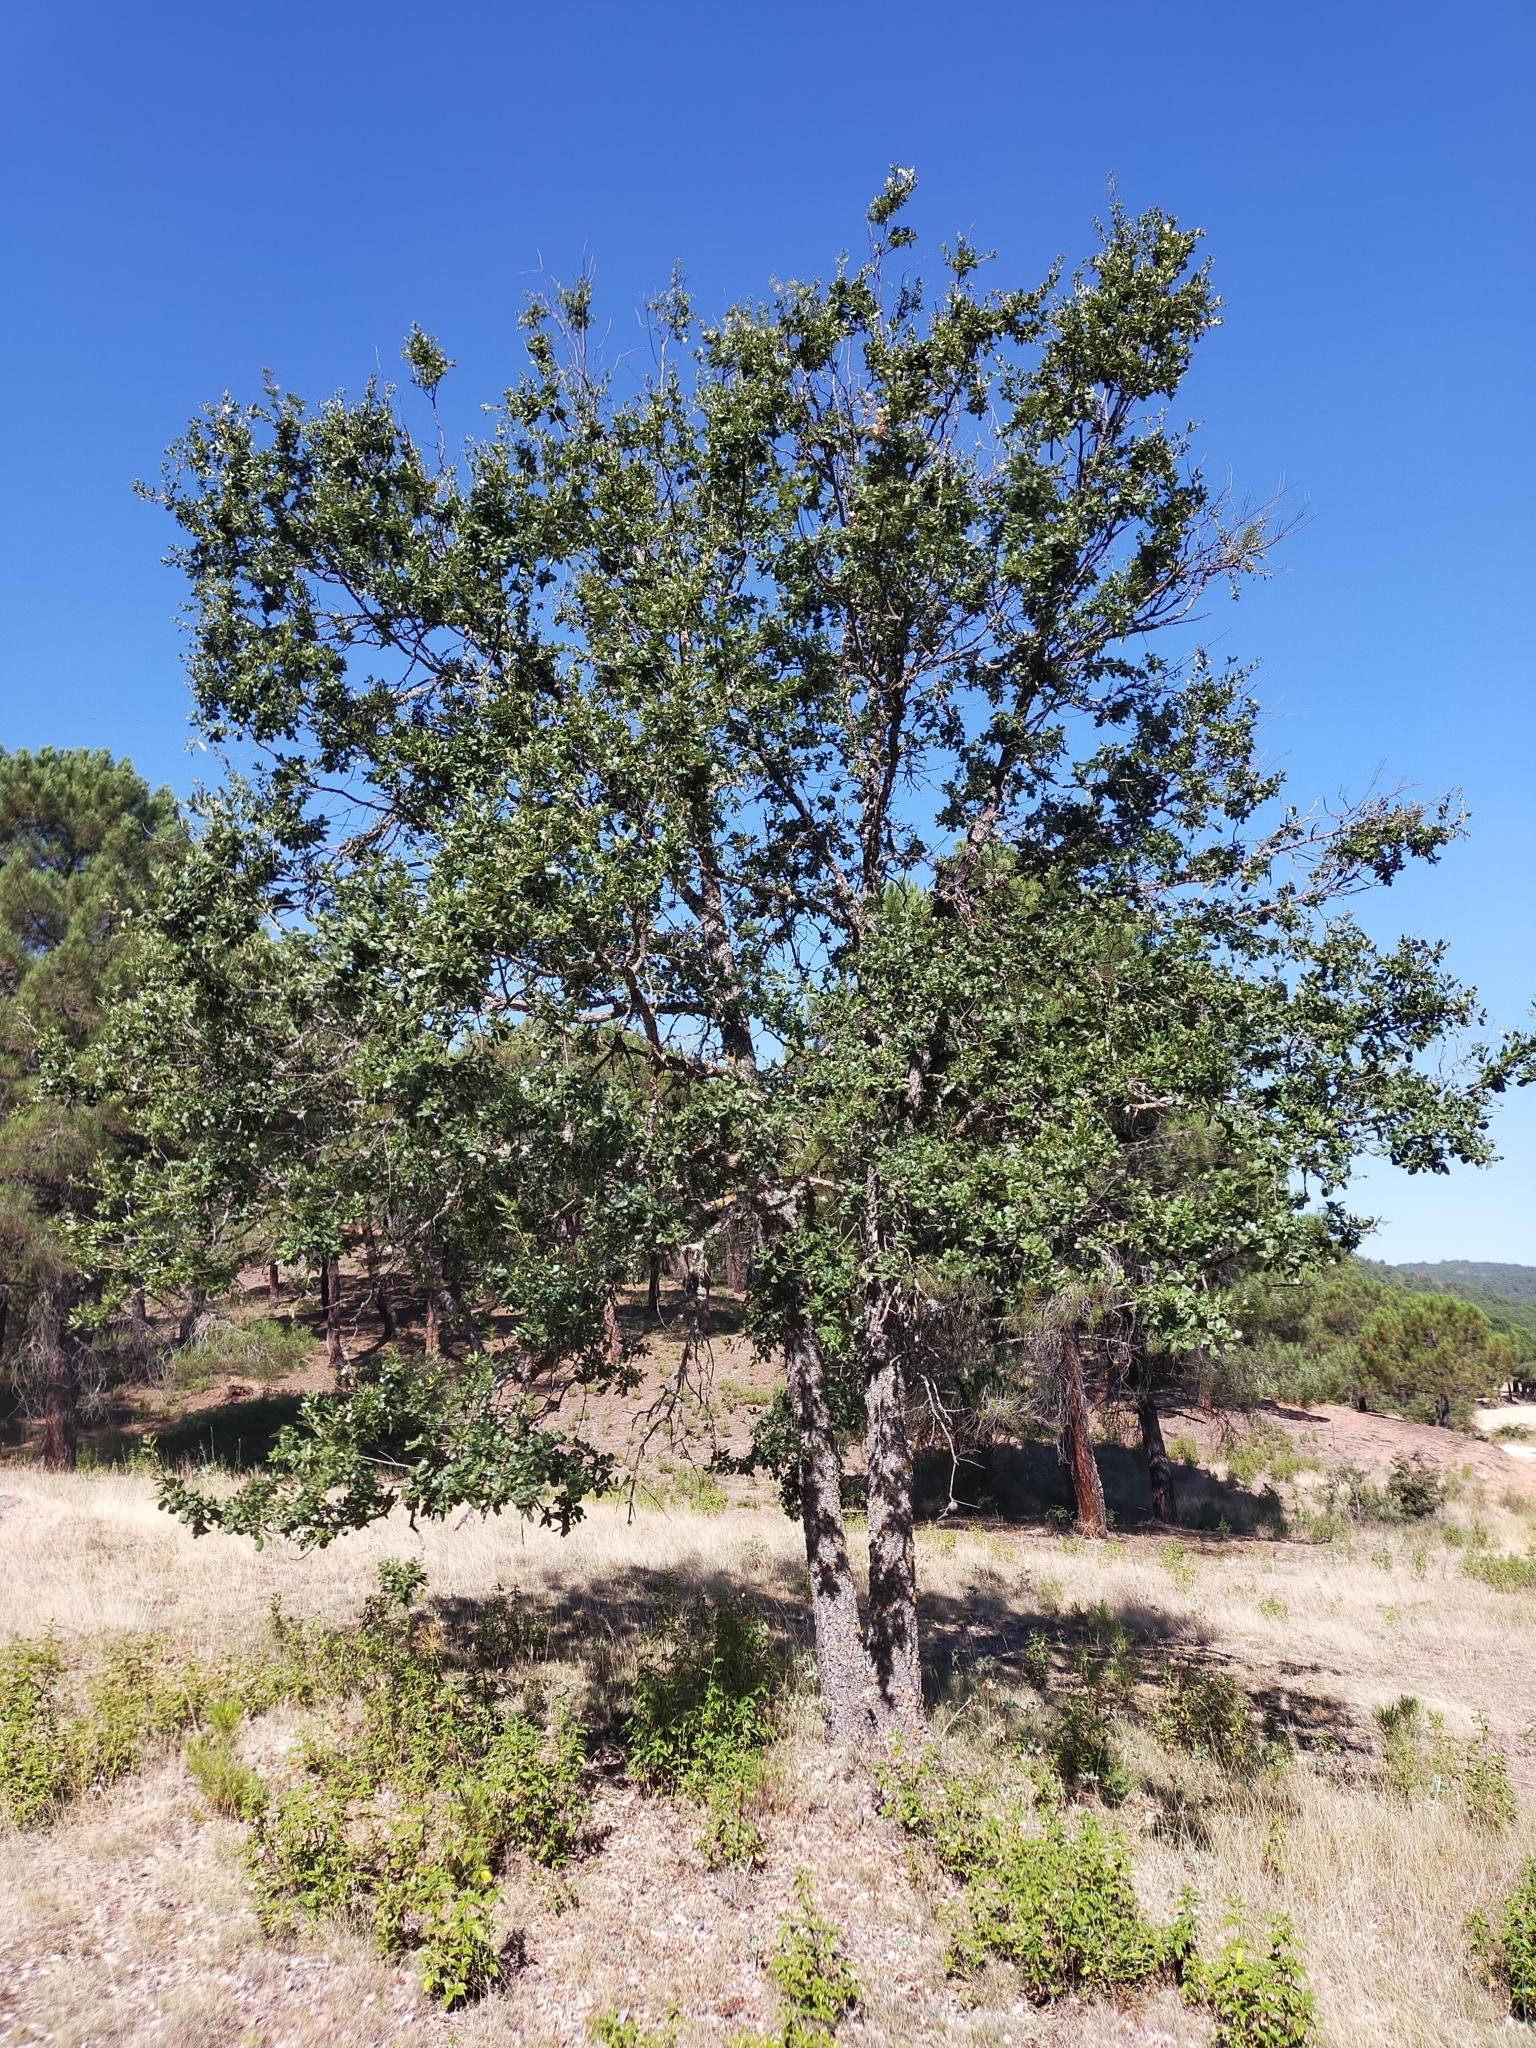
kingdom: Plantae
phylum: Tracheophyta
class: Magnoliopsida
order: Fagales
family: Fagaceae
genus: Quercus
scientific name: Quercus faginea
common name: Gall oak tree
